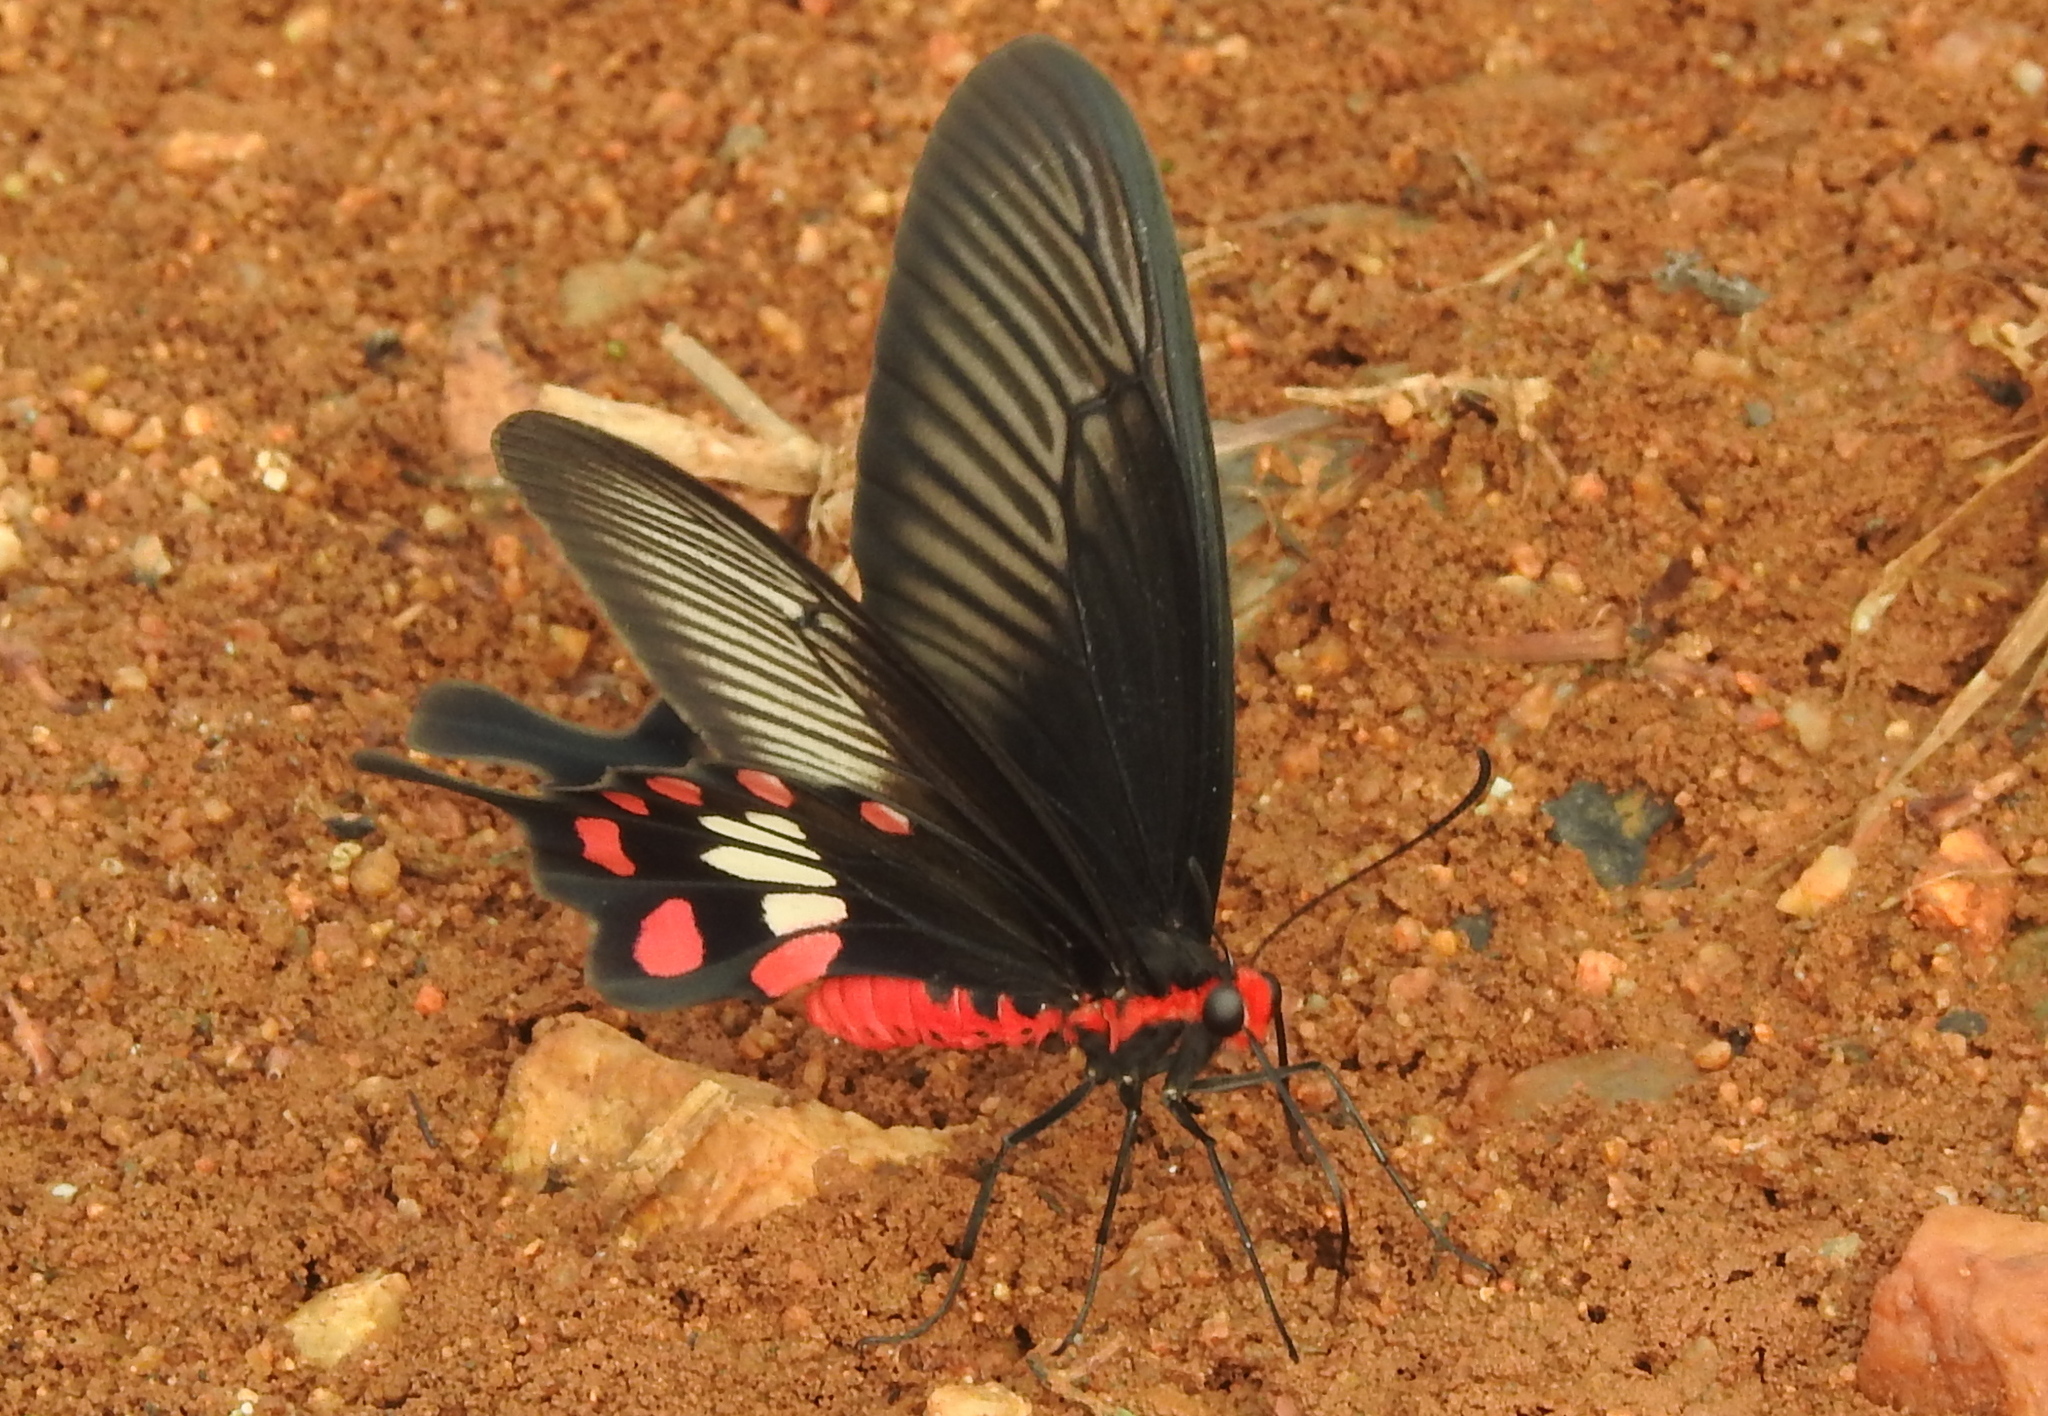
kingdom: Animalia
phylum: Arthropoda
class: Insecta
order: Lepidoptera
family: Papilionidae
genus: Pachliopta
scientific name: Pachliopta aristolochiae
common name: Common rose
